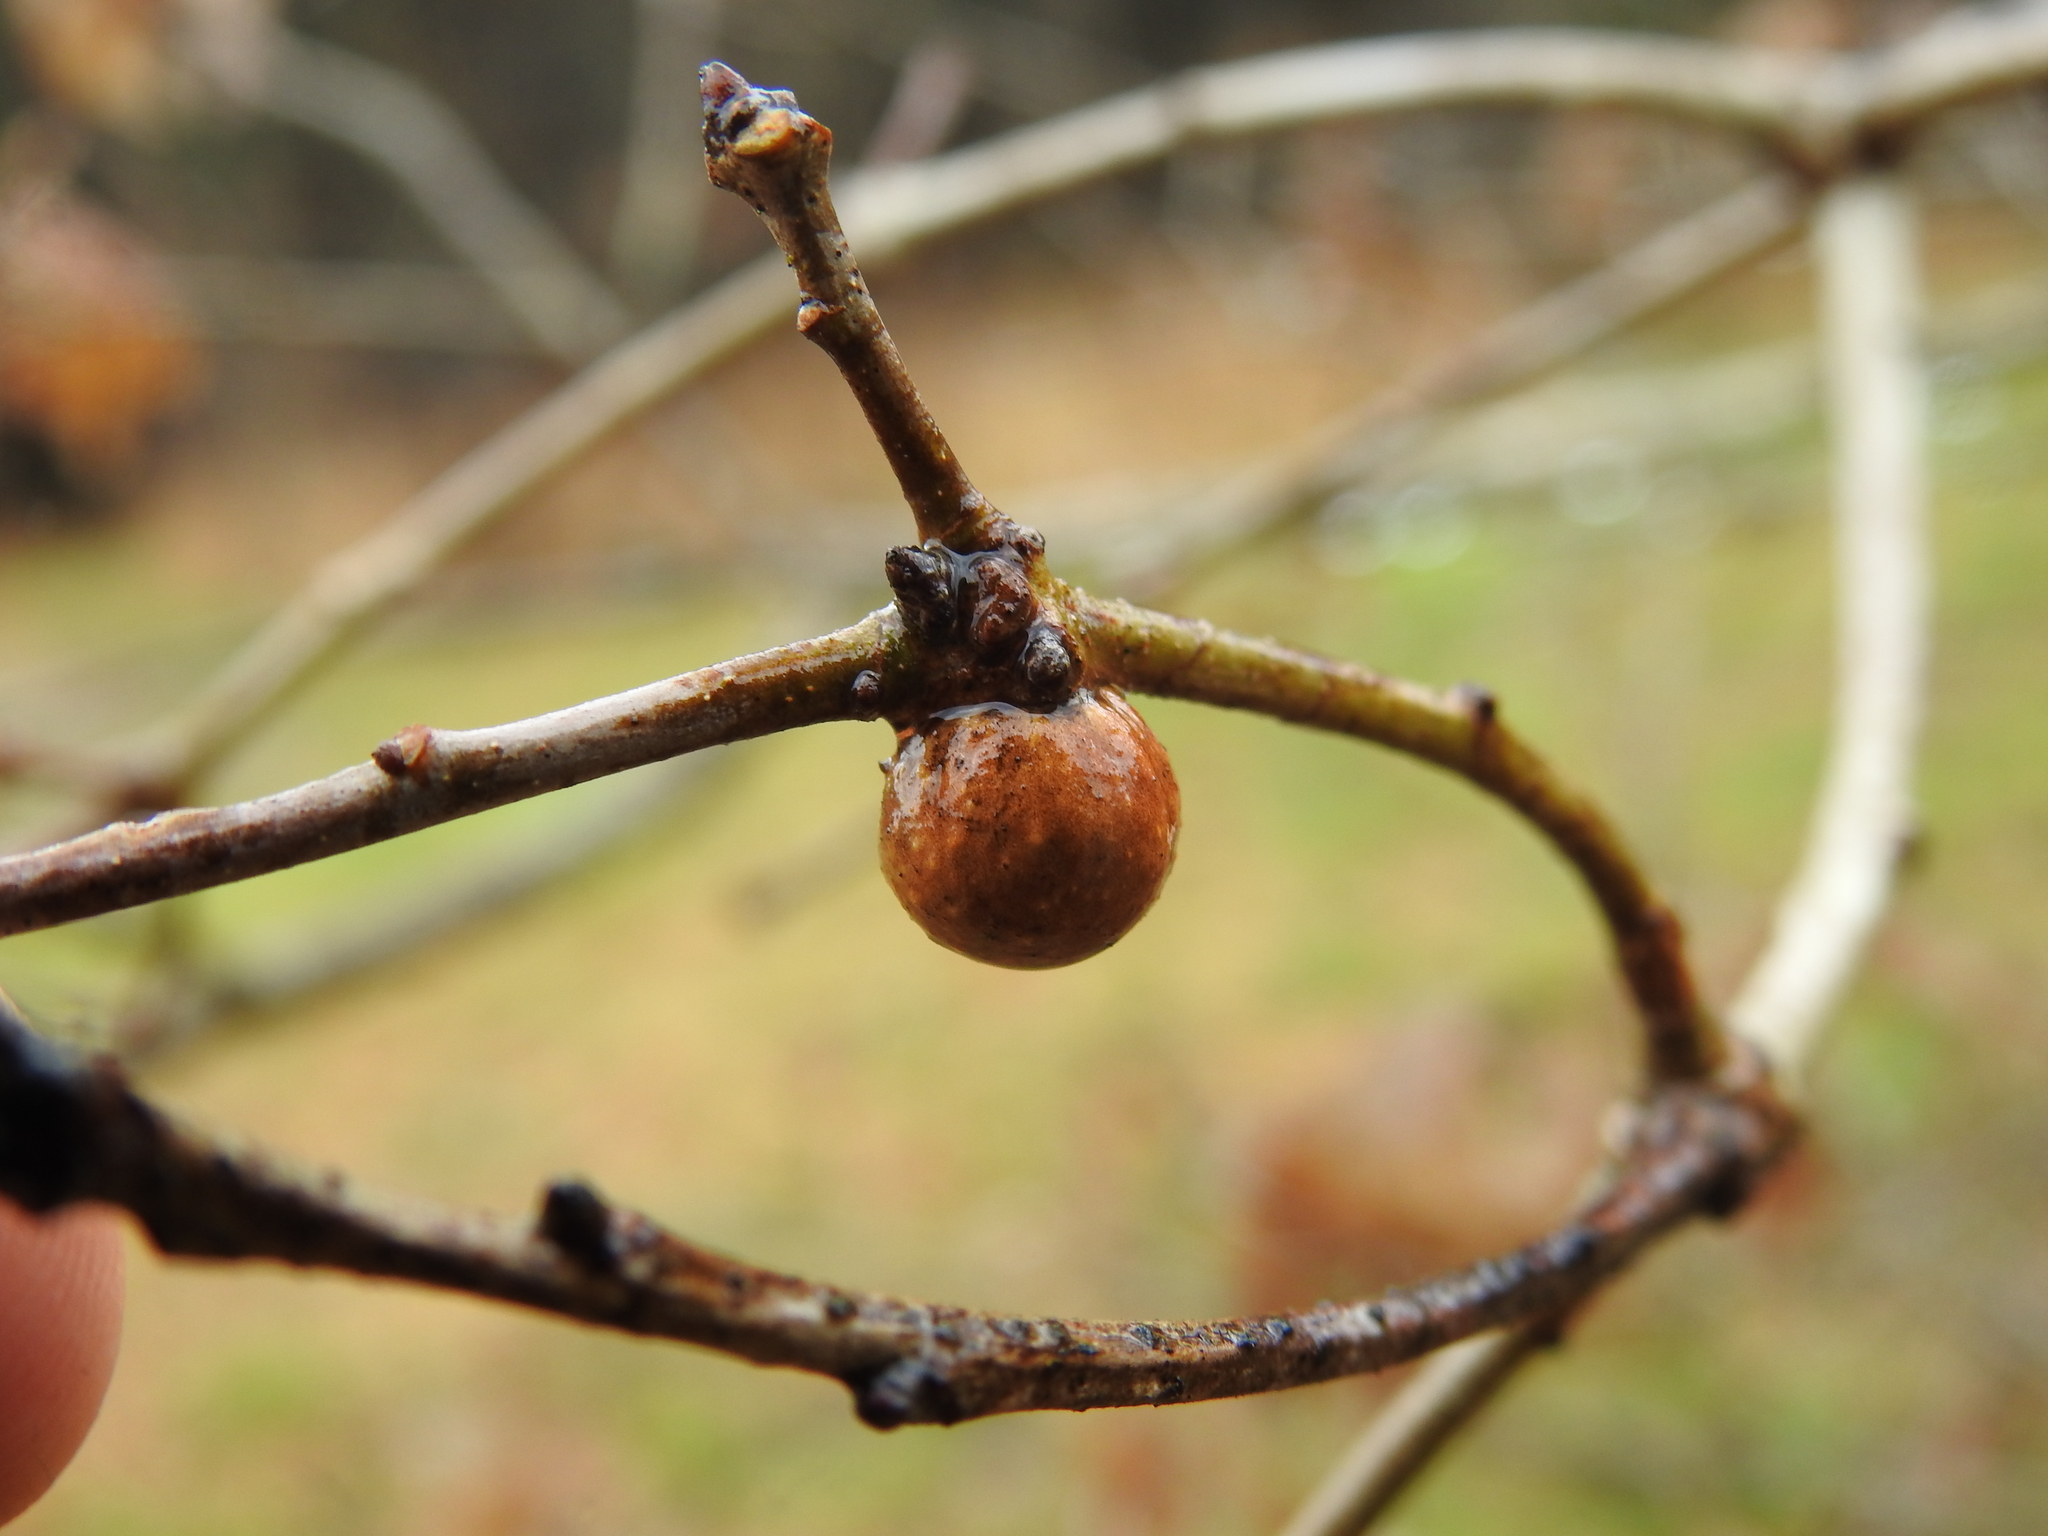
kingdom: Animalia
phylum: Arthropoda
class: Insecta
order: Hymenoptera
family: Cynipidae
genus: Disholcaspis
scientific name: Disholcaspis quercusglobulus
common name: Round bullet gall wasp
